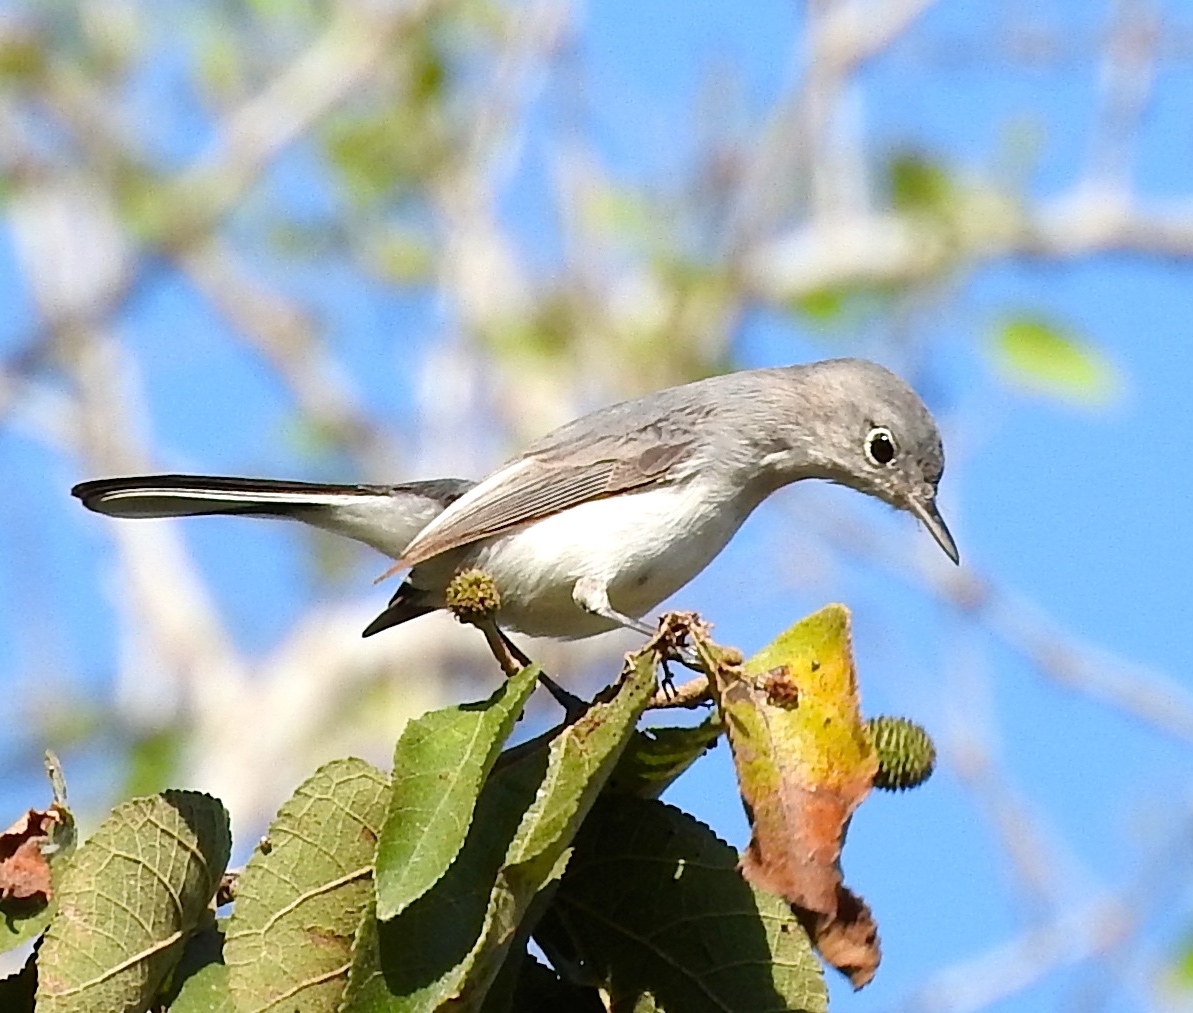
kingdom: Animalia
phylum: Chordata
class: Aves
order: Passeriformes
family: Polioptilidae
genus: Polioptila
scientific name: Polioptila caerulea
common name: Blue-gray gnatcatcher
